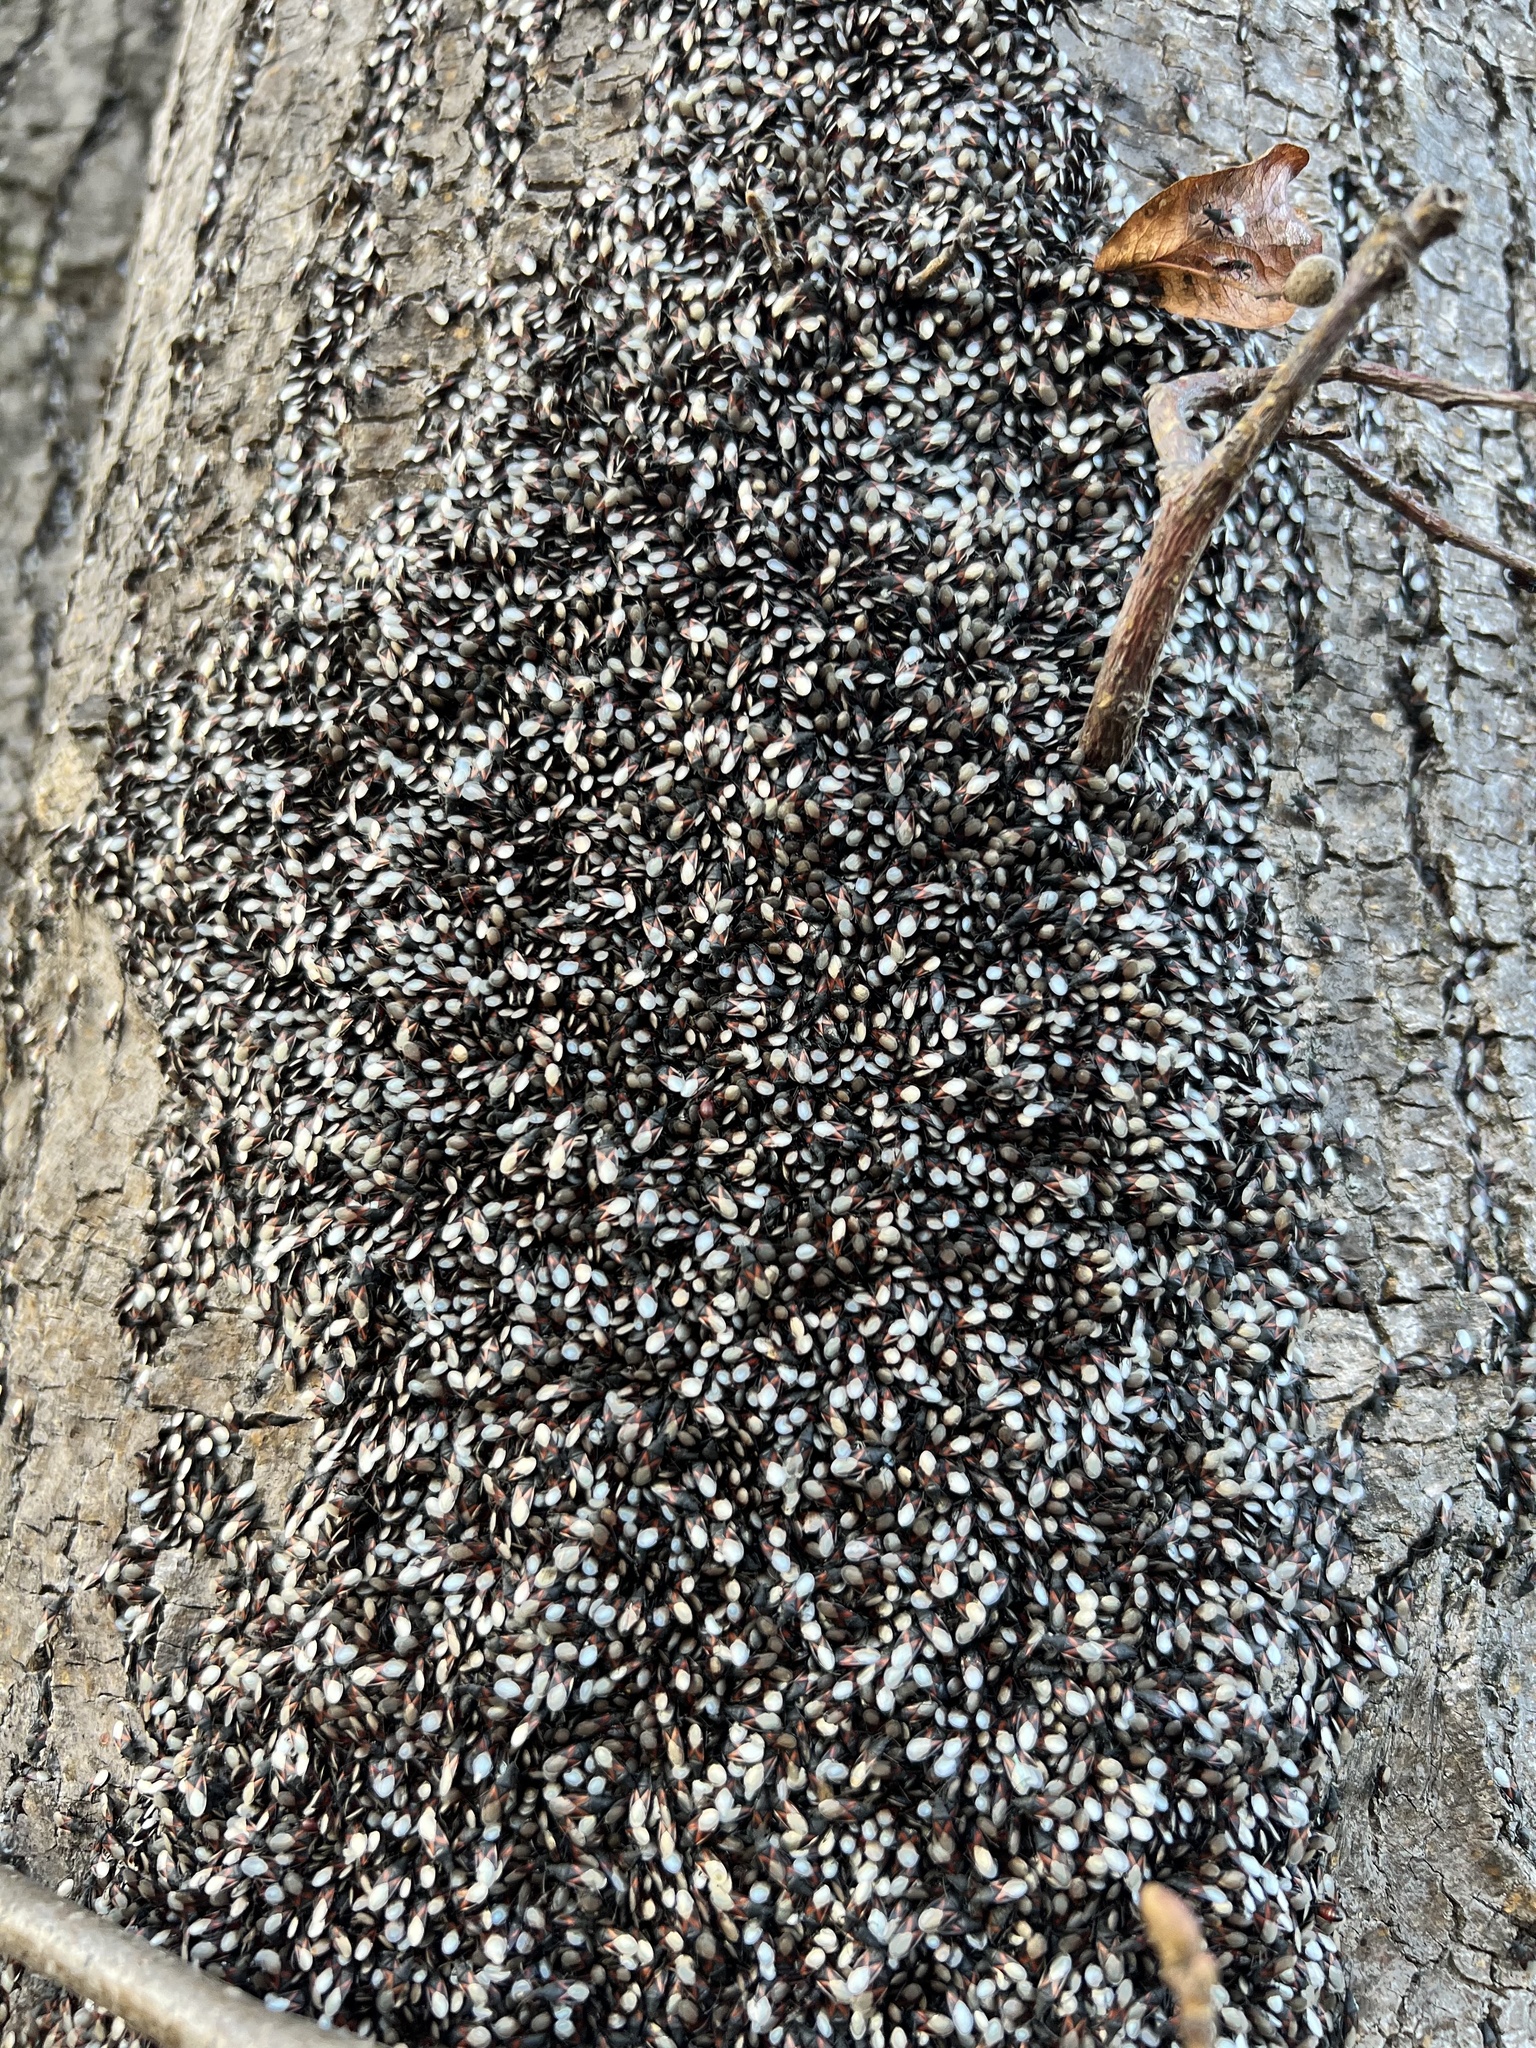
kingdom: Animalia
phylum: Arthropoda
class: Insecta
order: Hemiptera
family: Oxycarenidae
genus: Oxycarenus
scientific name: Oxycarenus lavaterae
